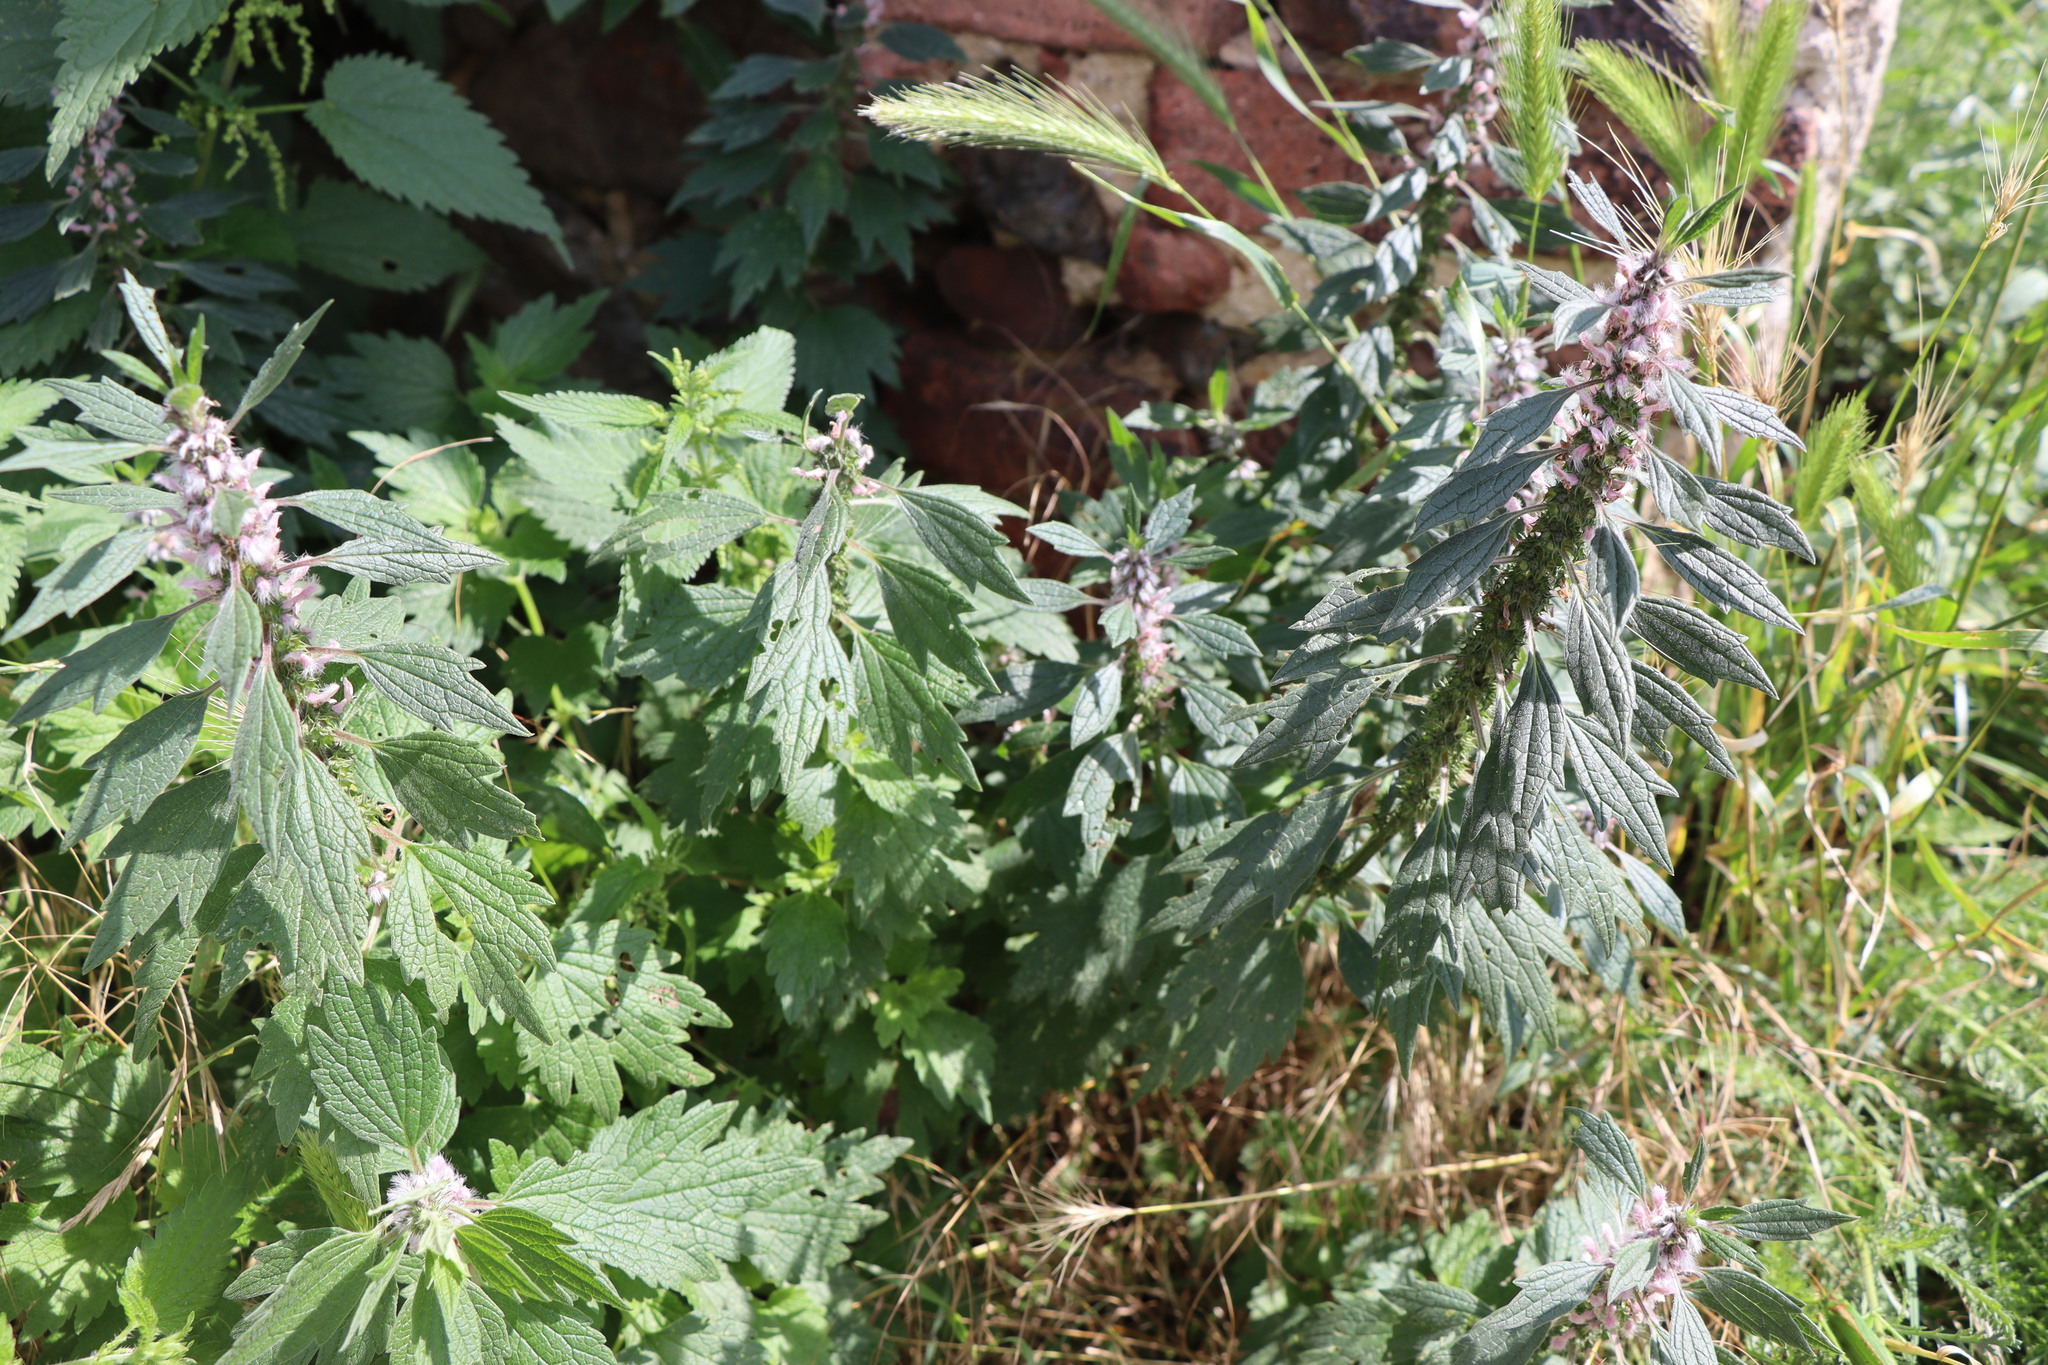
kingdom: Plantae
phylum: Tracheophyta
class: Magnoliopsida
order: Lamiales
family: Lamiaceae
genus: Leonurus
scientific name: Leonurus cardiaca
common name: Motherwort
